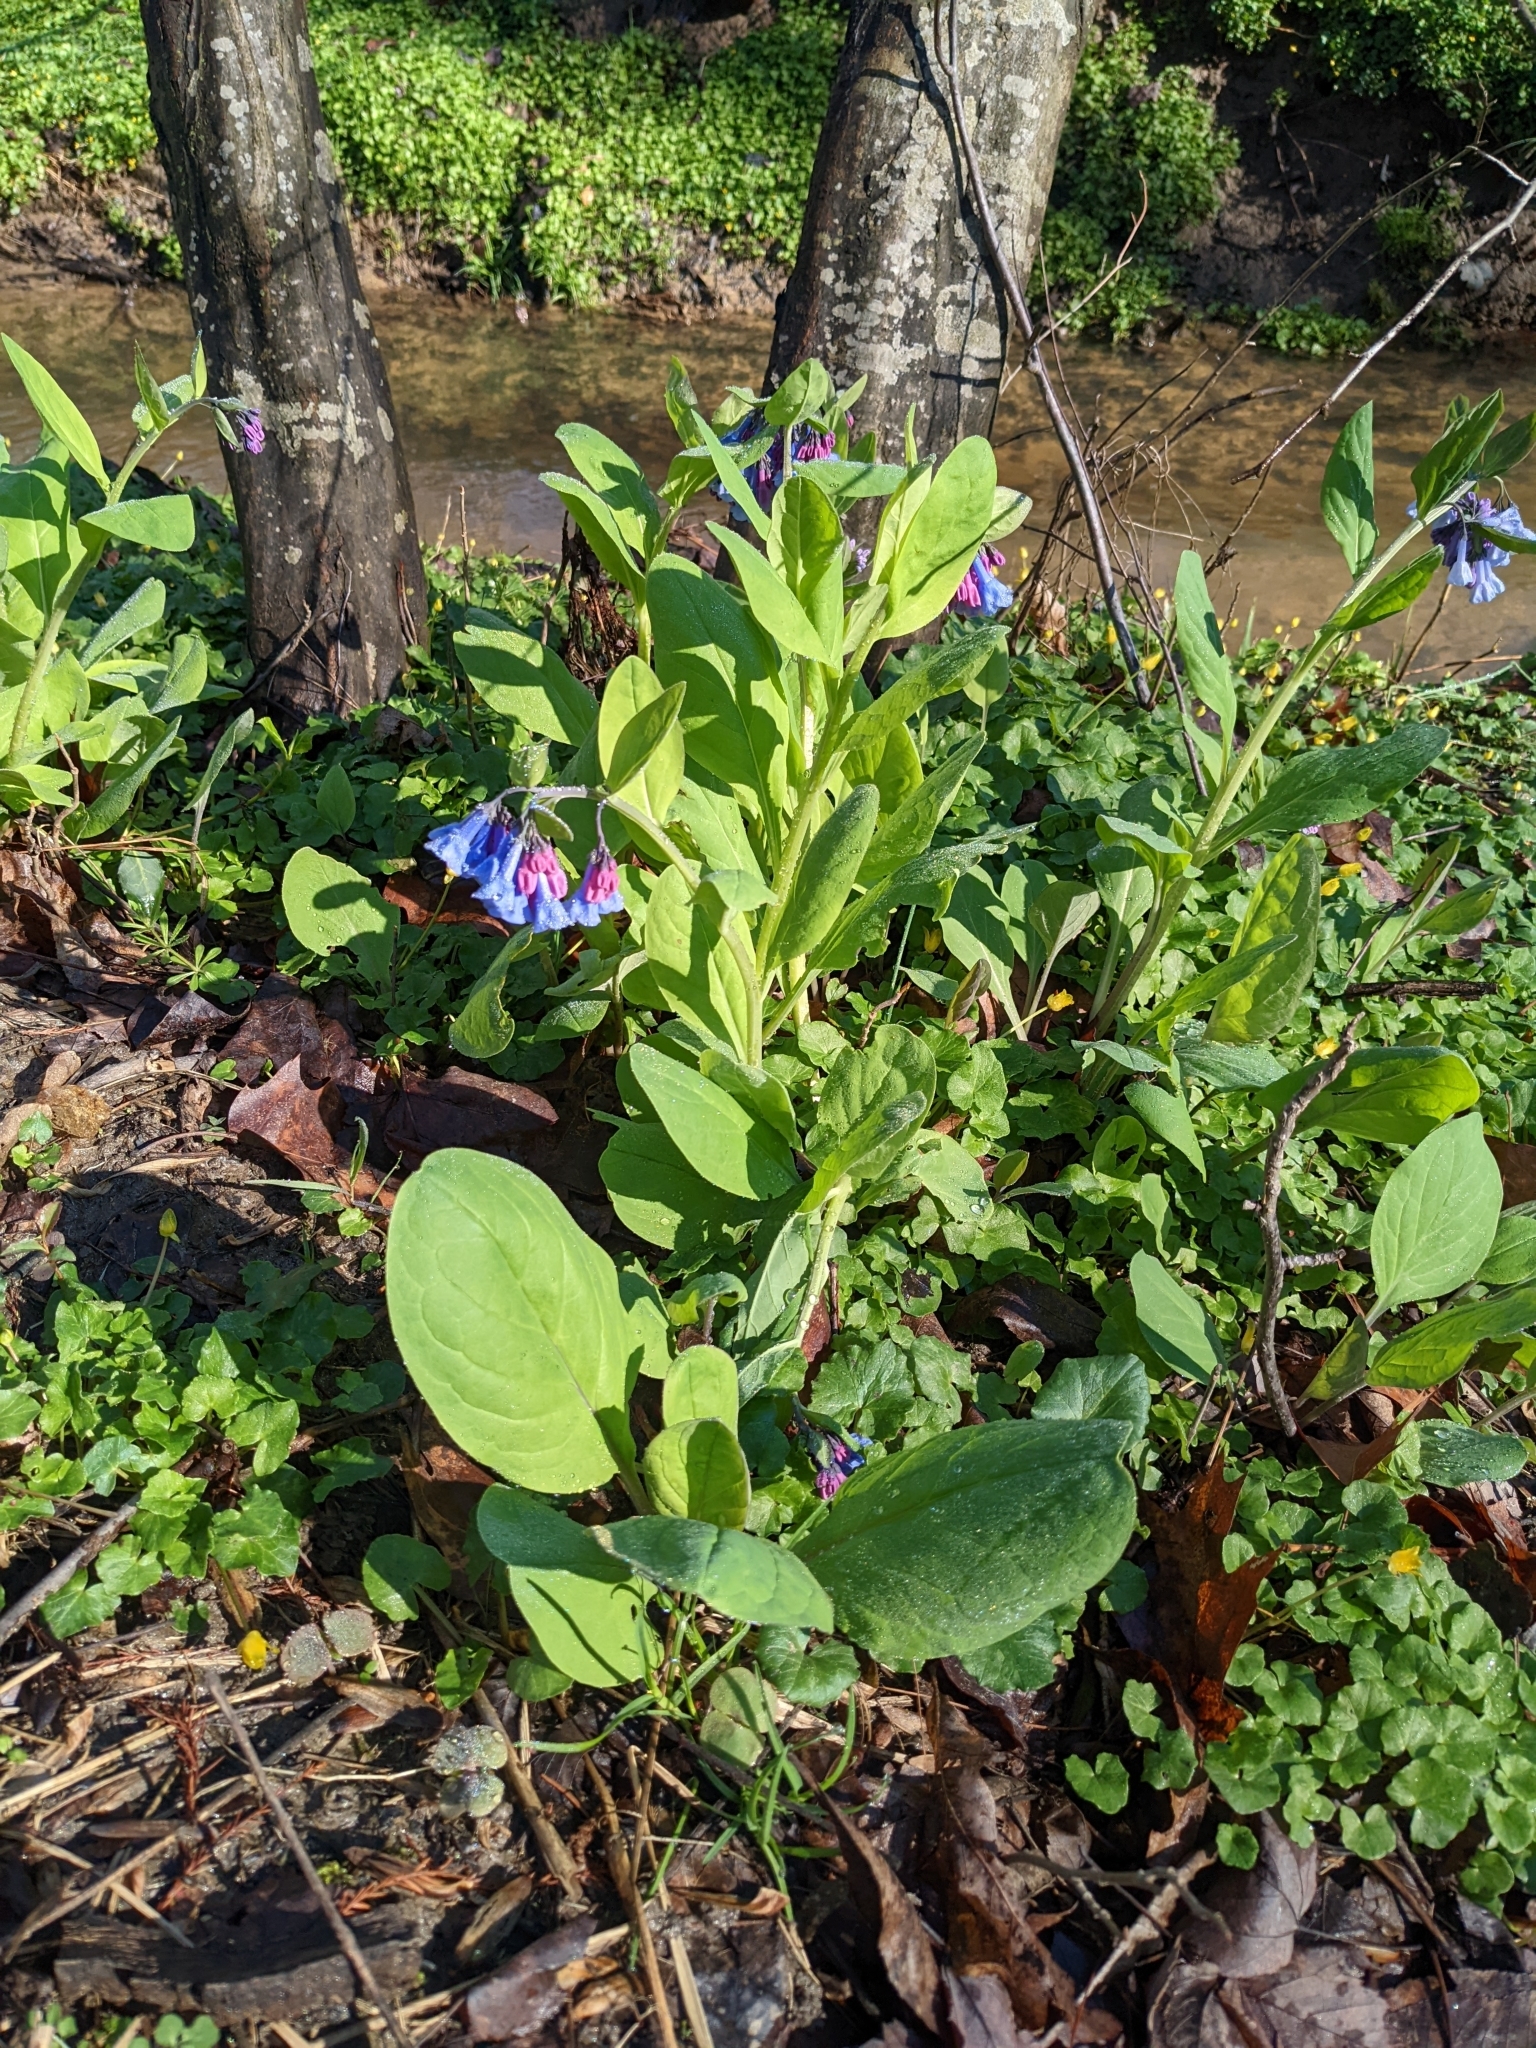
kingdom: Plantae
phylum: Tracheophyta
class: Magnoliopsida
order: Boraginales
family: Boraginaceae
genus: Mertensia
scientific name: Mertensia virginica
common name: Virginia bluebells
